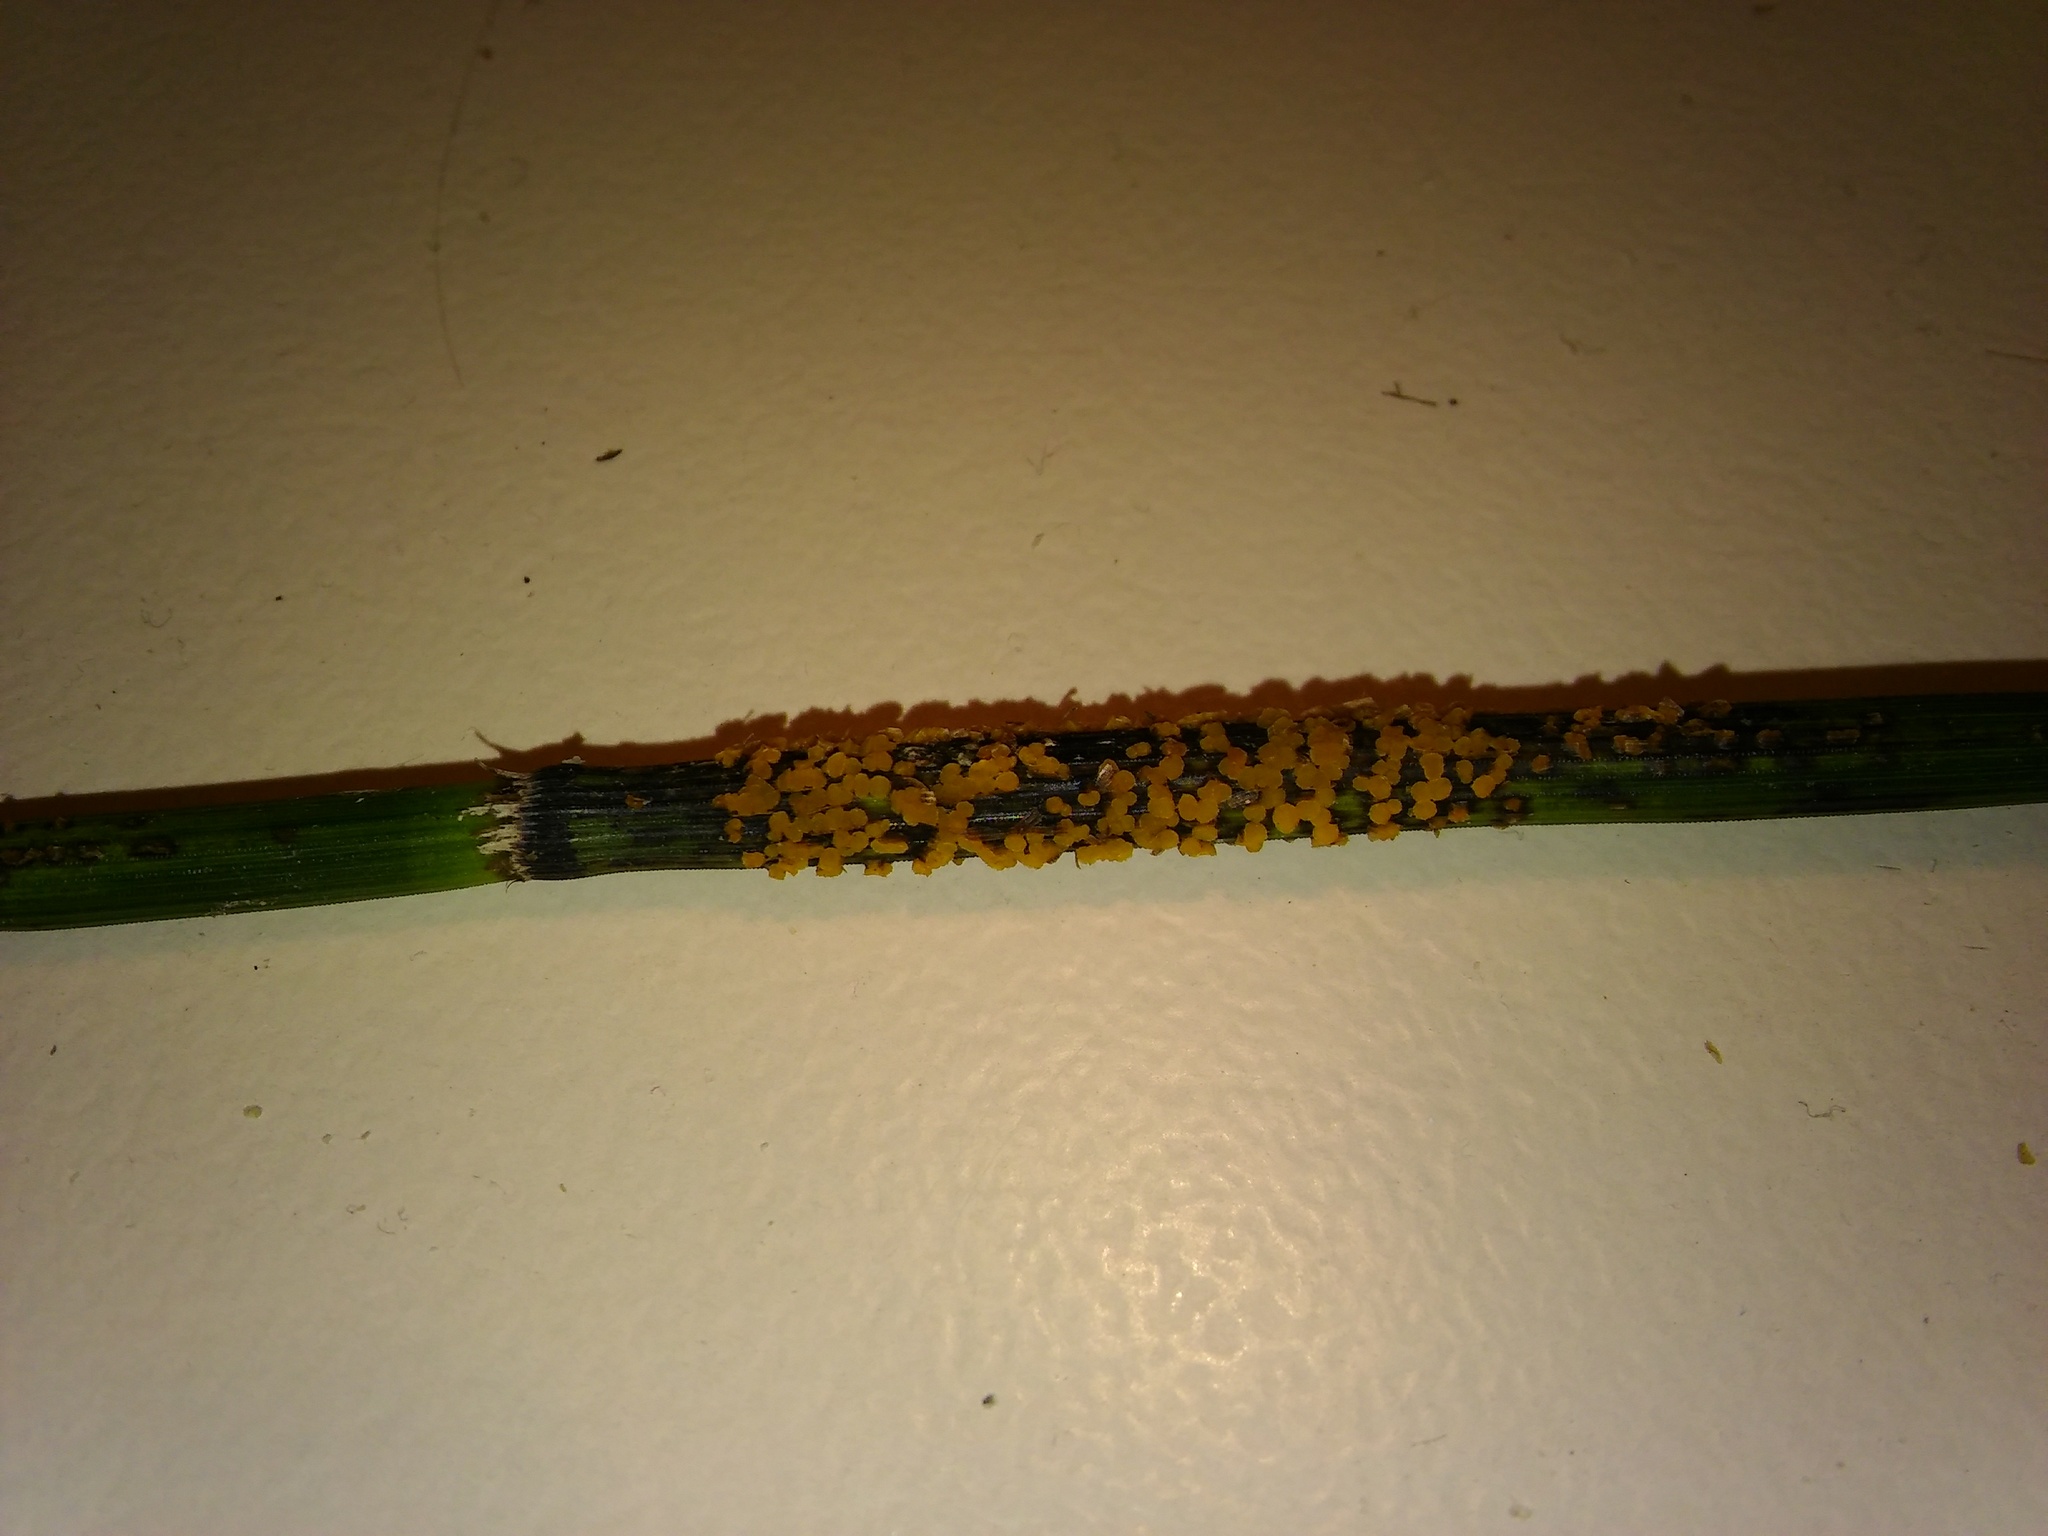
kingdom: Fungi
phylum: Ascomycota
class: Leotiomycetes
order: Helotiales
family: Helotiaceae
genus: Stamnaria
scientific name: Stamnaria americana
